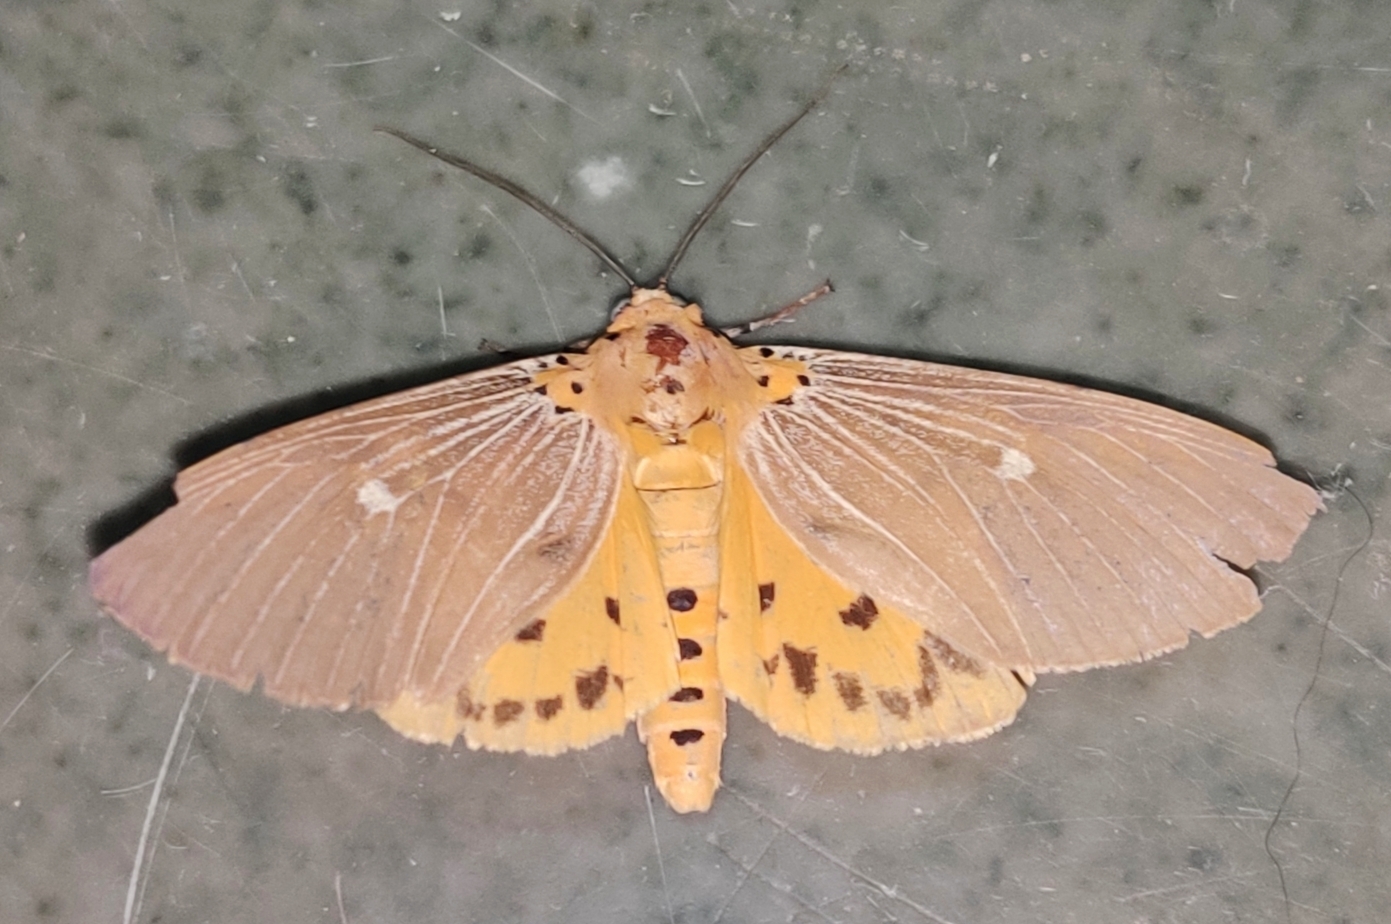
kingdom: Animalia
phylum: Arthropoda
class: Insecta
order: Lepidoptera
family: Erebidae
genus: Asota
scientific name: Asota caricae
